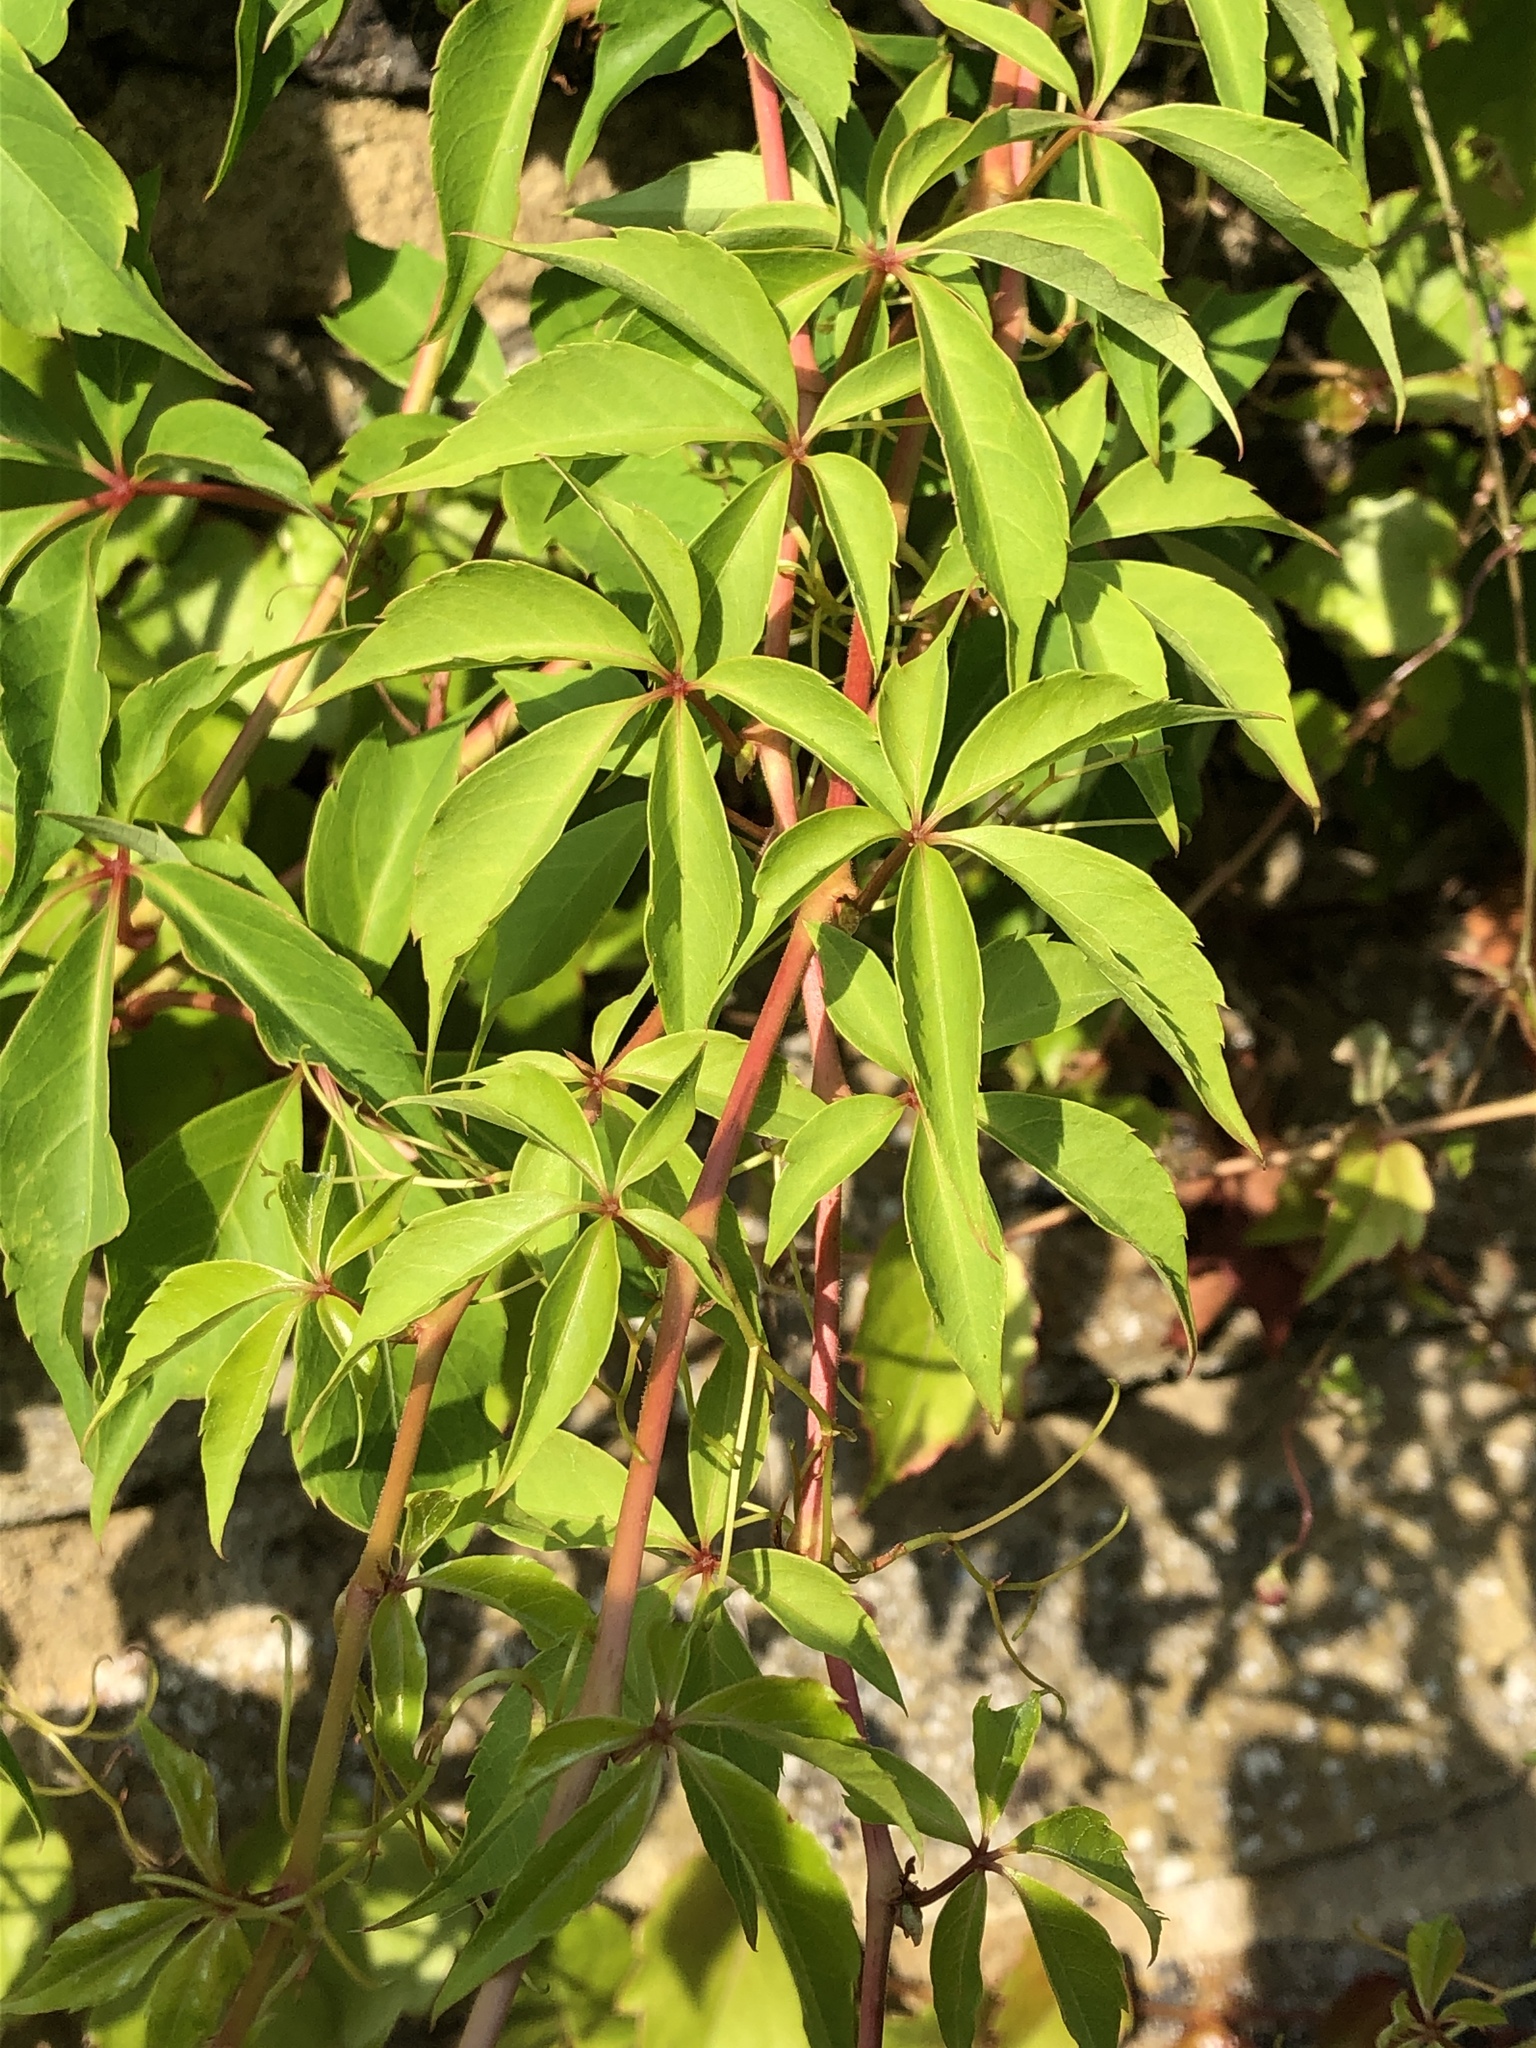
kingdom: Plantae
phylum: Tracheophyta
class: Magnoliopsida
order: Vitales
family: Vitaceae
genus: Parthenocissus
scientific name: Parthenocissus quinquefolia
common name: Virginia-creeper
